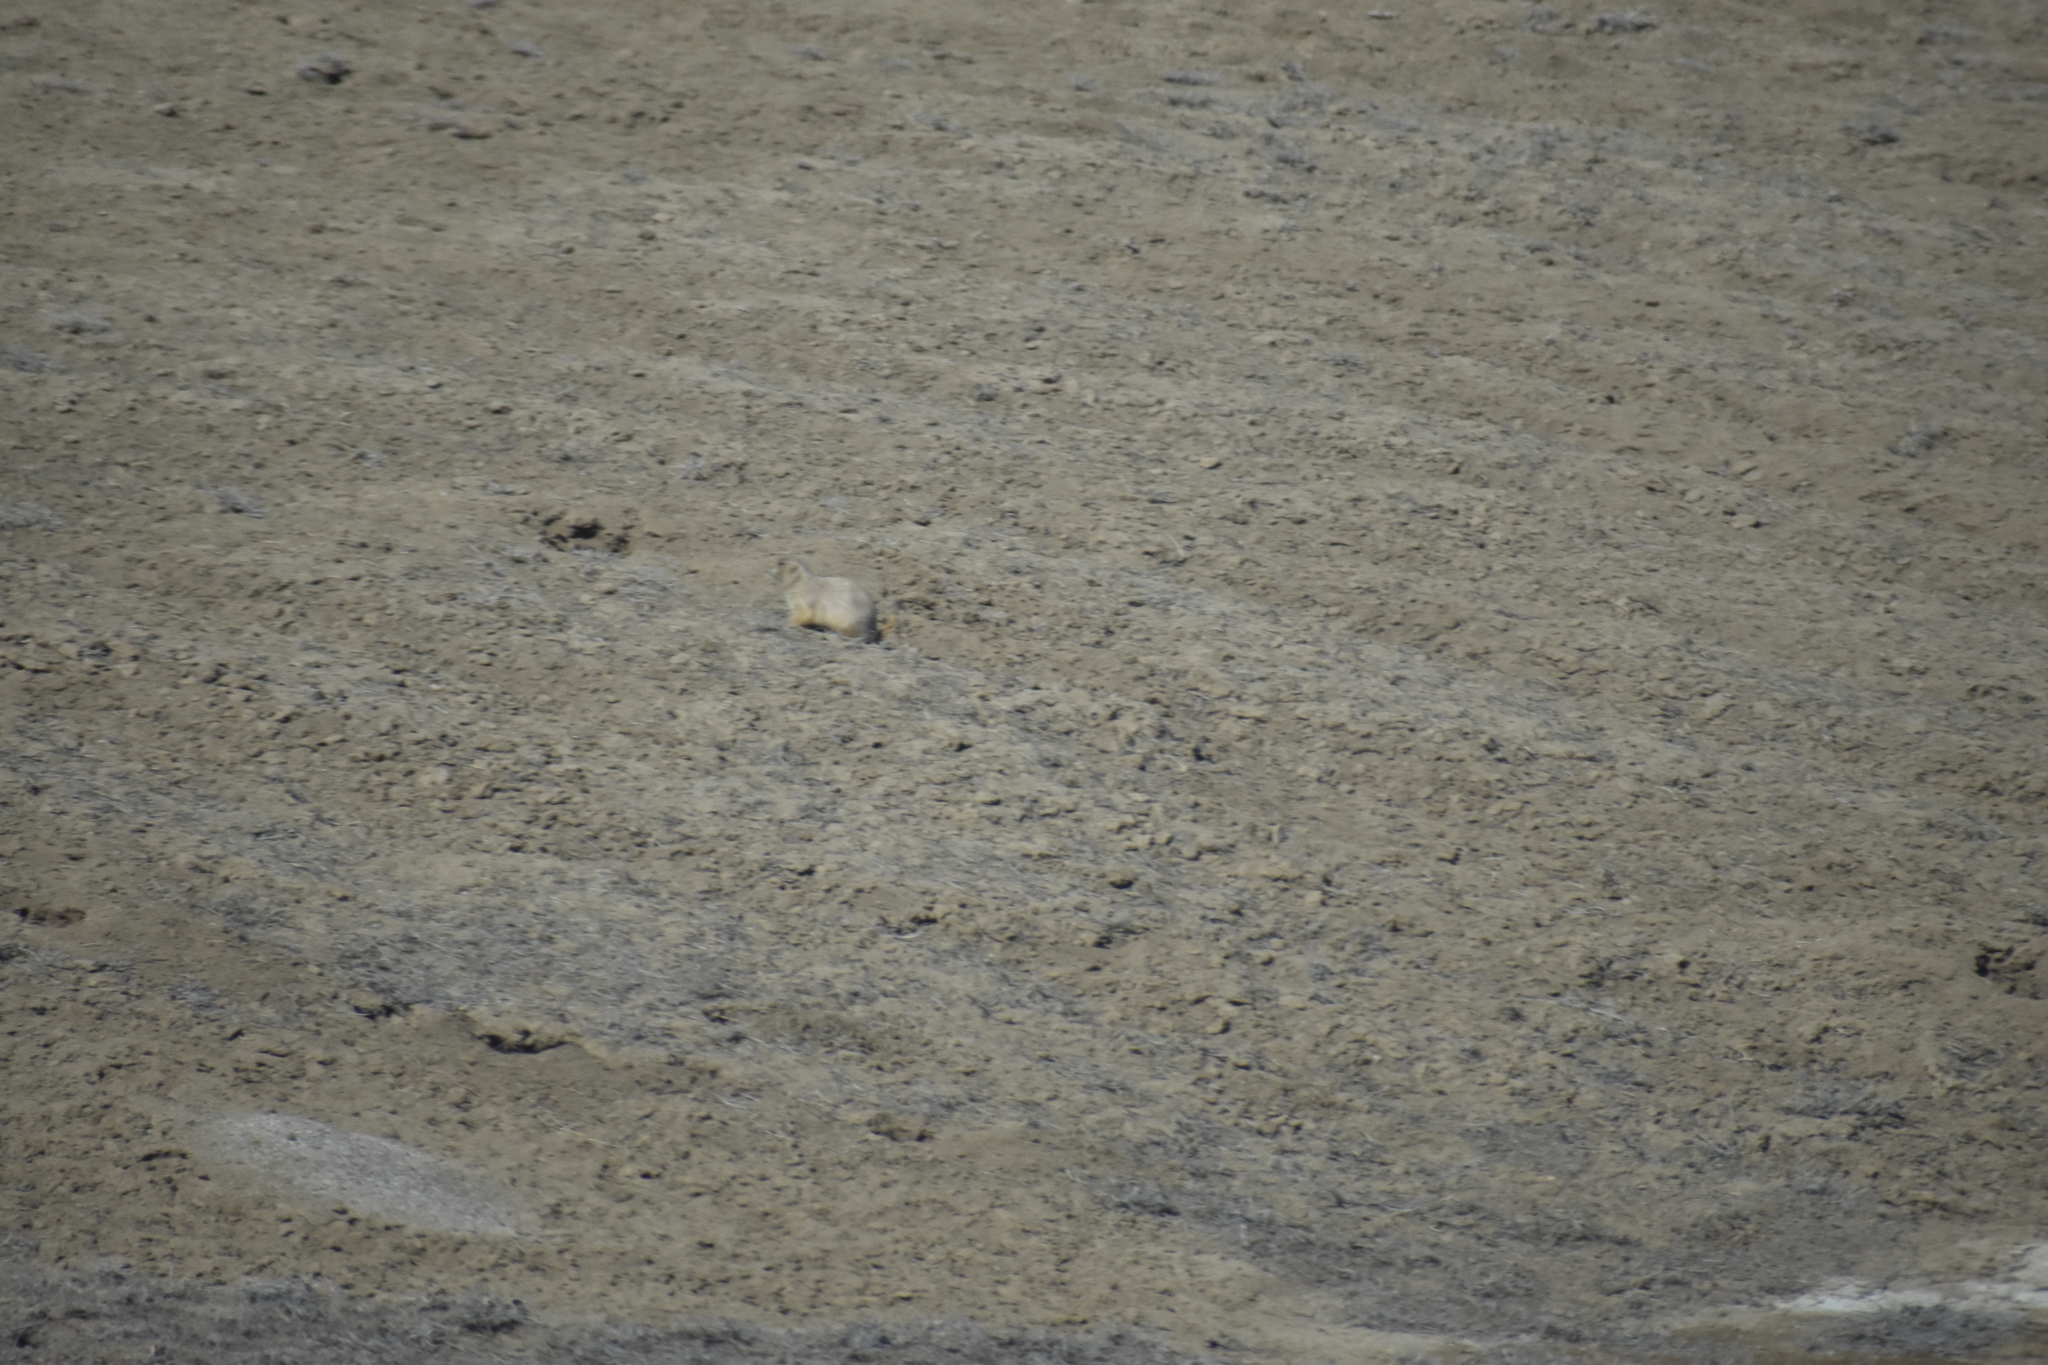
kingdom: Animalia
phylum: Chordata
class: Mammalia
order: Rodentia
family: Sciuridae
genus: Cynomys
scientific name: Cynomys ludovicianus
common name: Black-tailed prairie dog
